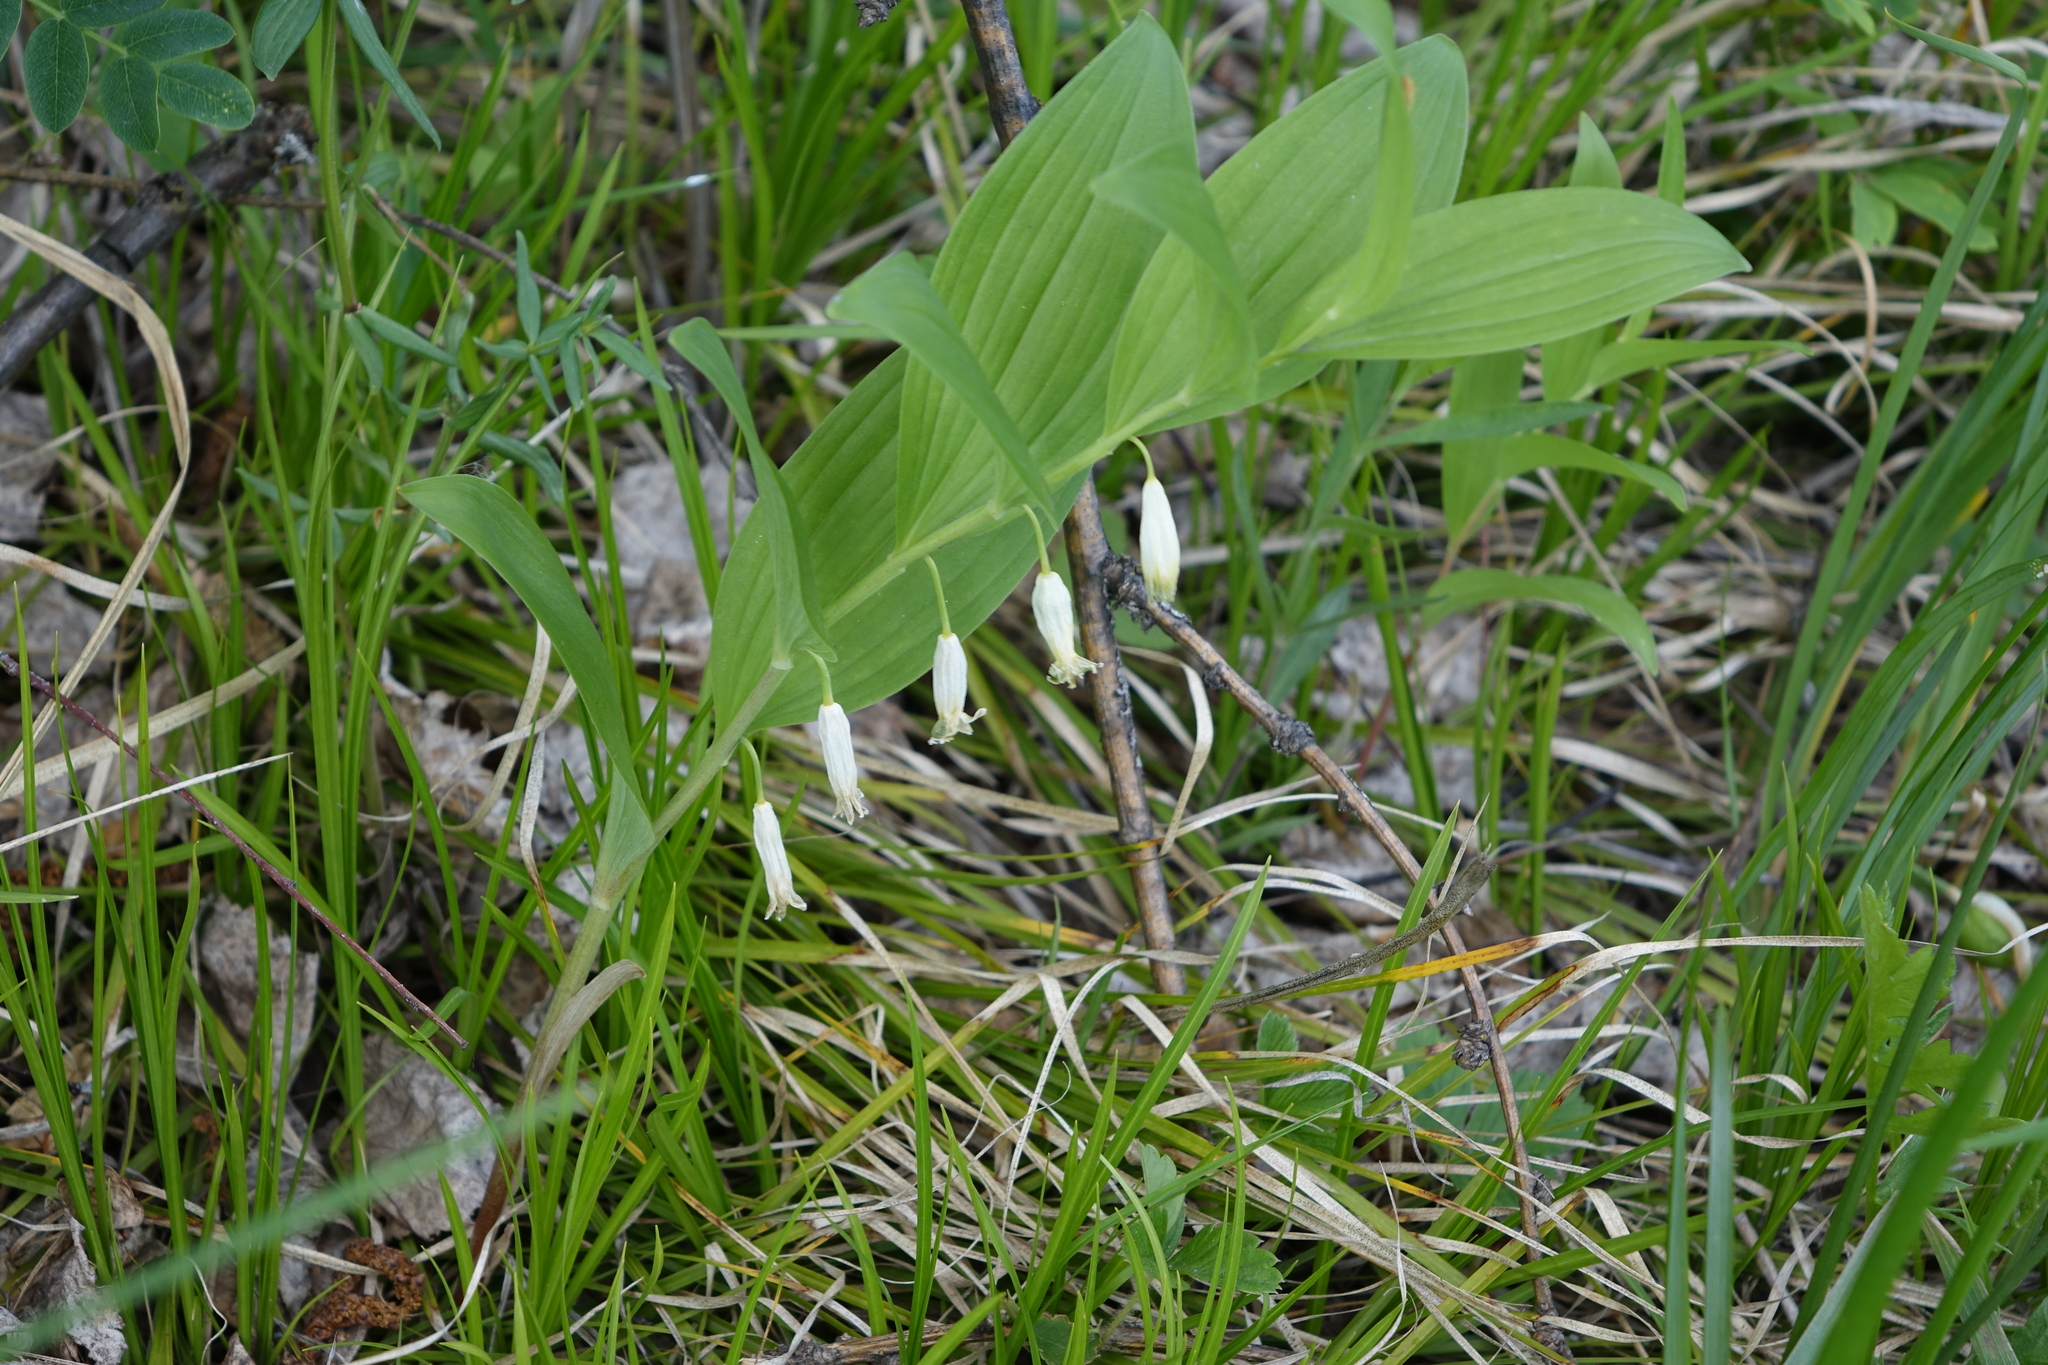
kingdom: Plantae
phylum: Tracheophyta
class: Liliopsida
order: Asparagales
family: Asparagaceae
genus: Polygonatum
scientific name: Polygonatum odoratum
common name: Angular solomon's-seal
